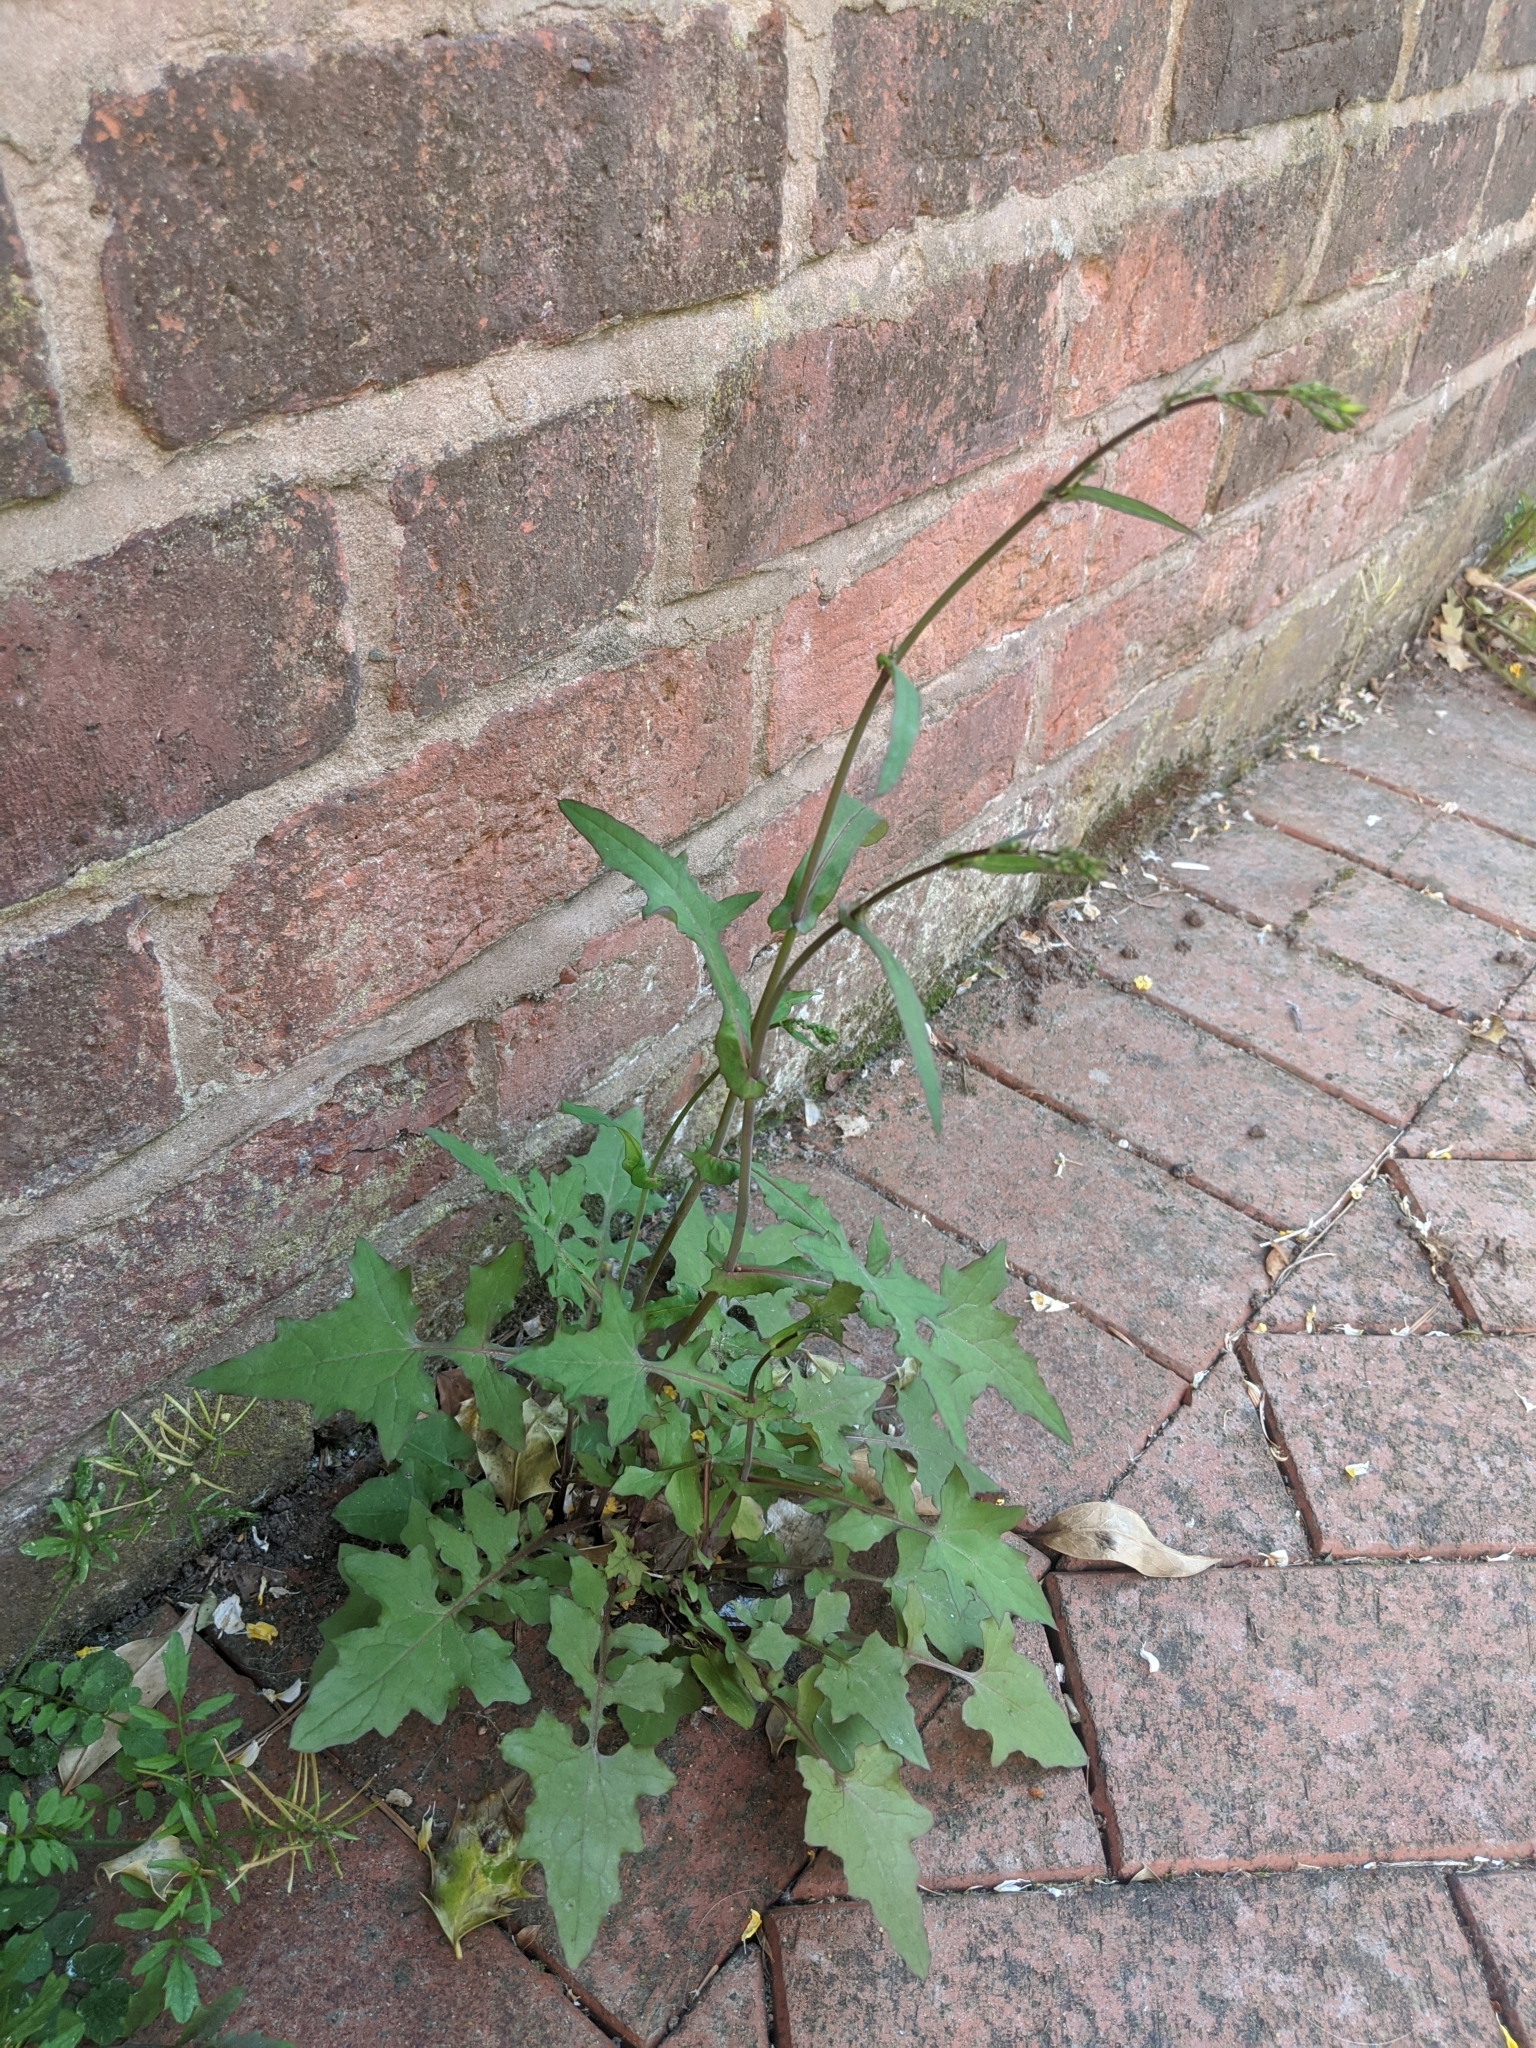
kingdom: Plantae
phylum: Tracheophyta
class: Magnoliopsida
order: Asterales
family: Asteraceae
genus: Mycelis
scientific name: Mycelis muralis
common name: Wall lettuce
